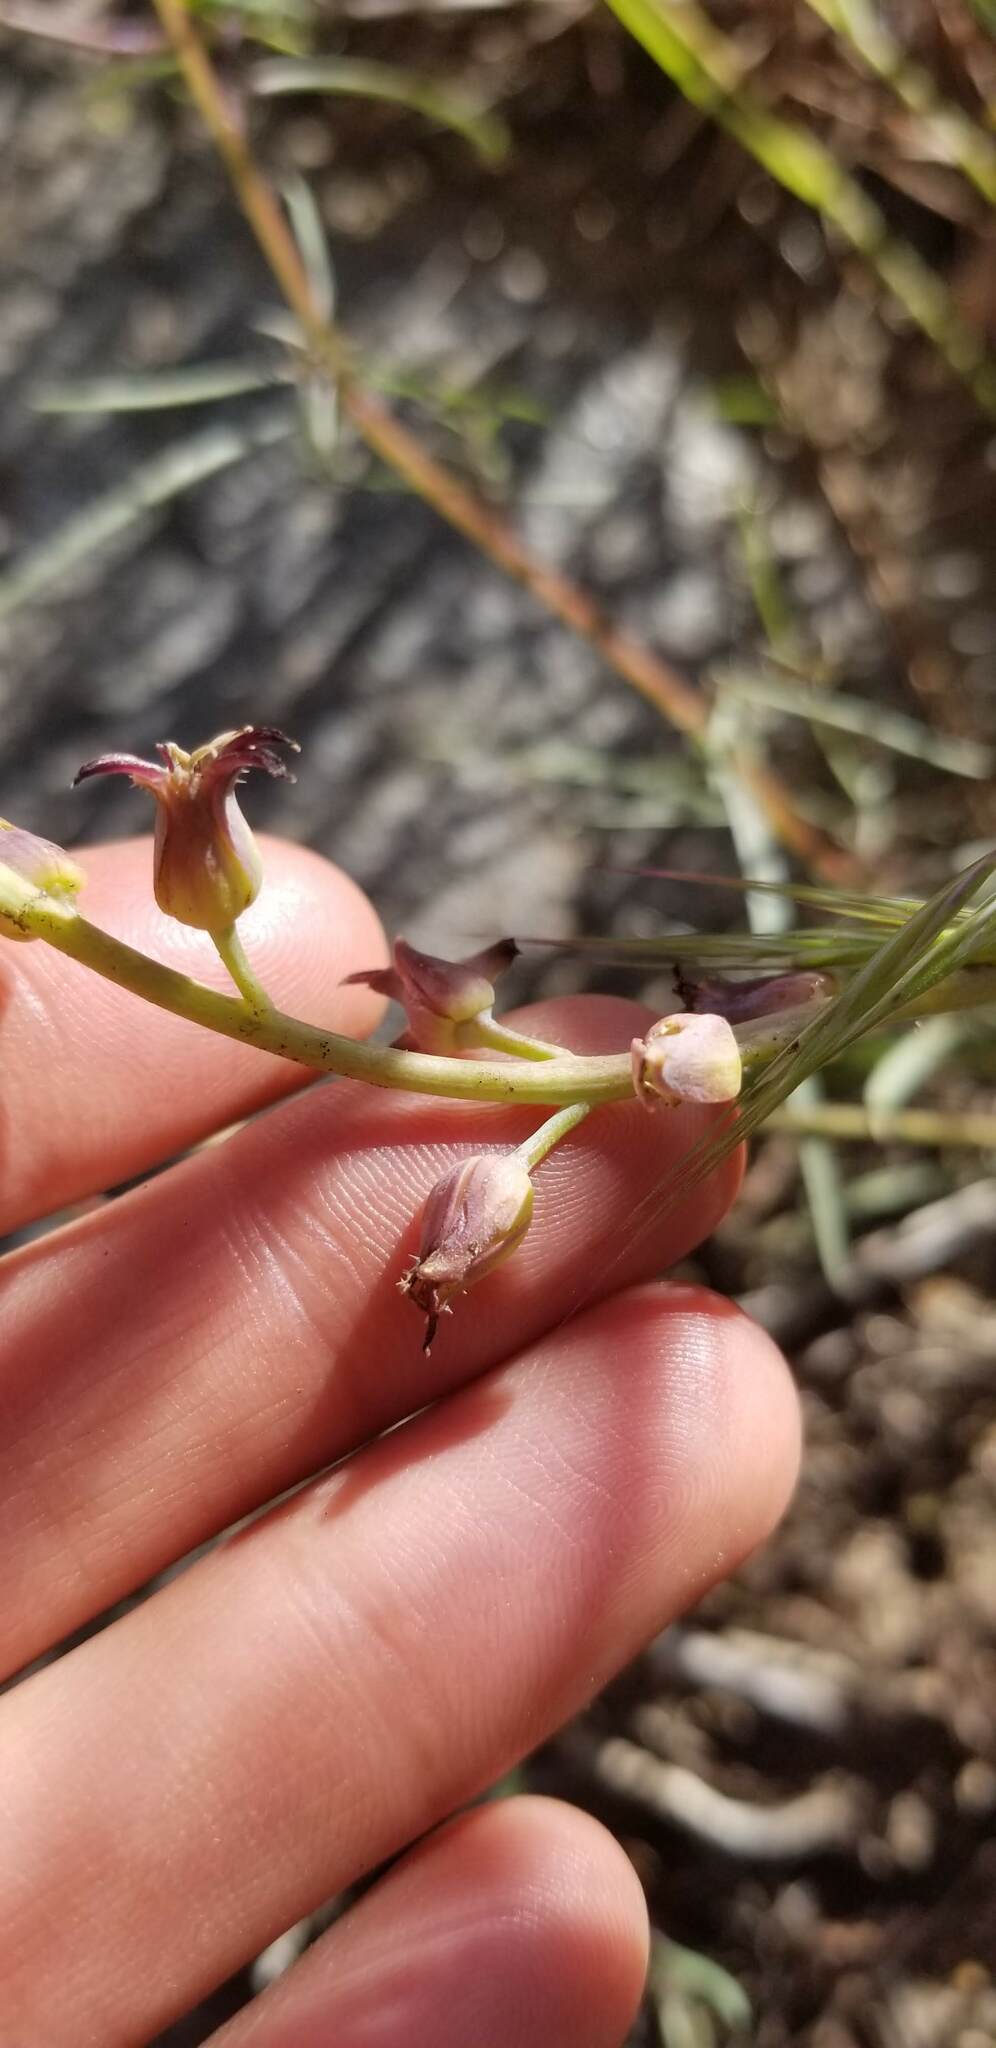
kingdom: Plantae
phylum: Tracheophyta
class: Magnoliopsida
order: Brassicales
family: Brassicaceae
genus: Streptanthus
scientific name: Streptanthus cordatus
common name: Heart-leaf jewel-flower
